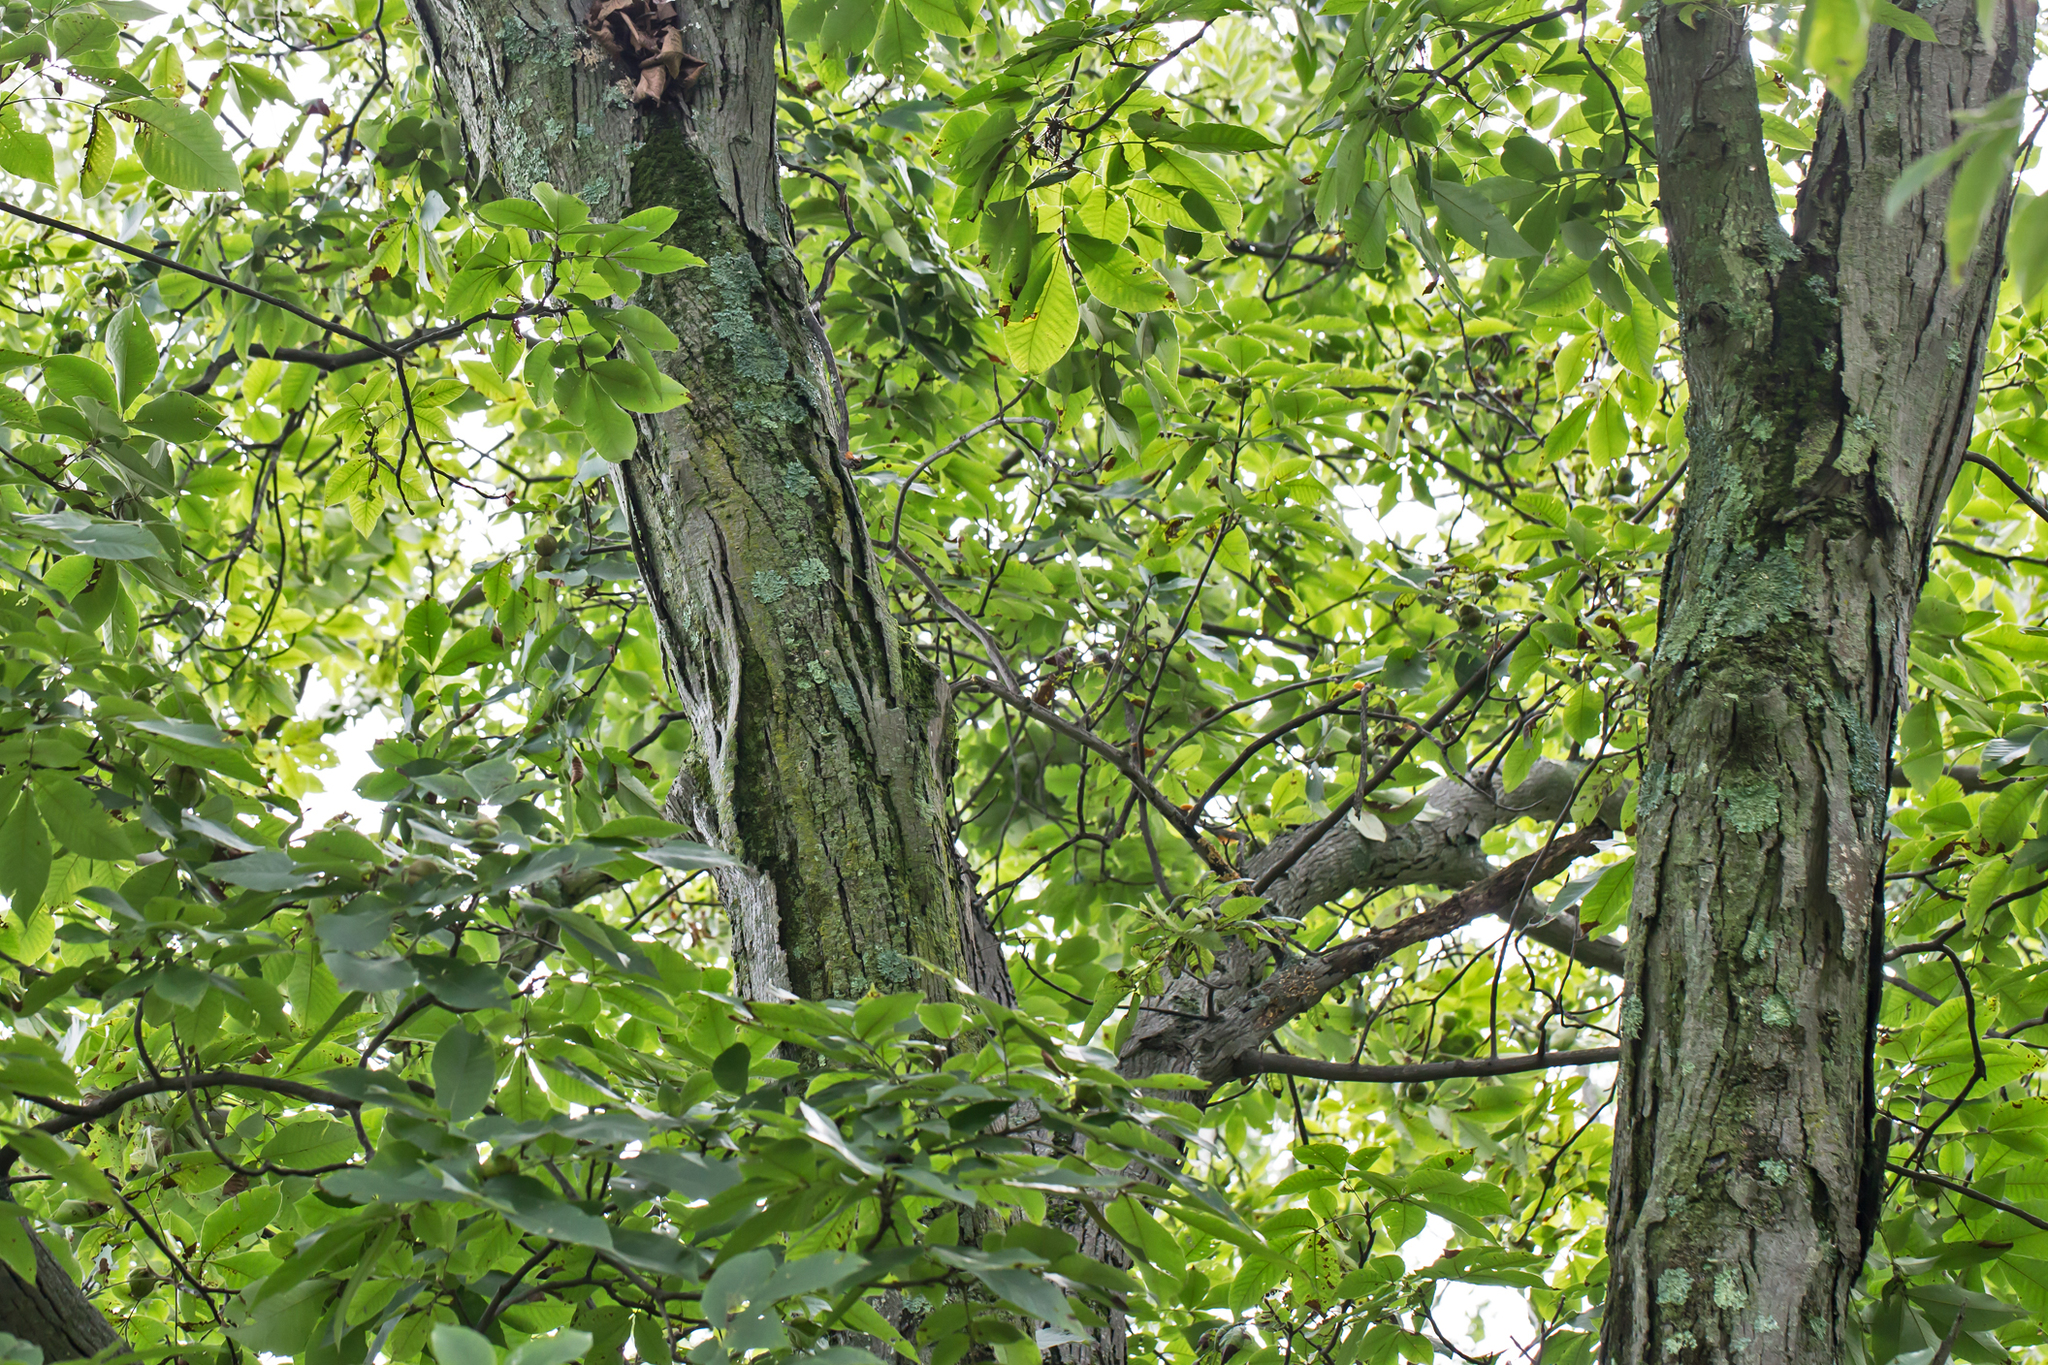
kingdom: Plantae
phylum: Tracheophyta
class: Magnoliopsida
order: Fagales
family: Juglandaceae
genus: Carya
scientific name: Carya ovata
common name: Shagbark hickory
